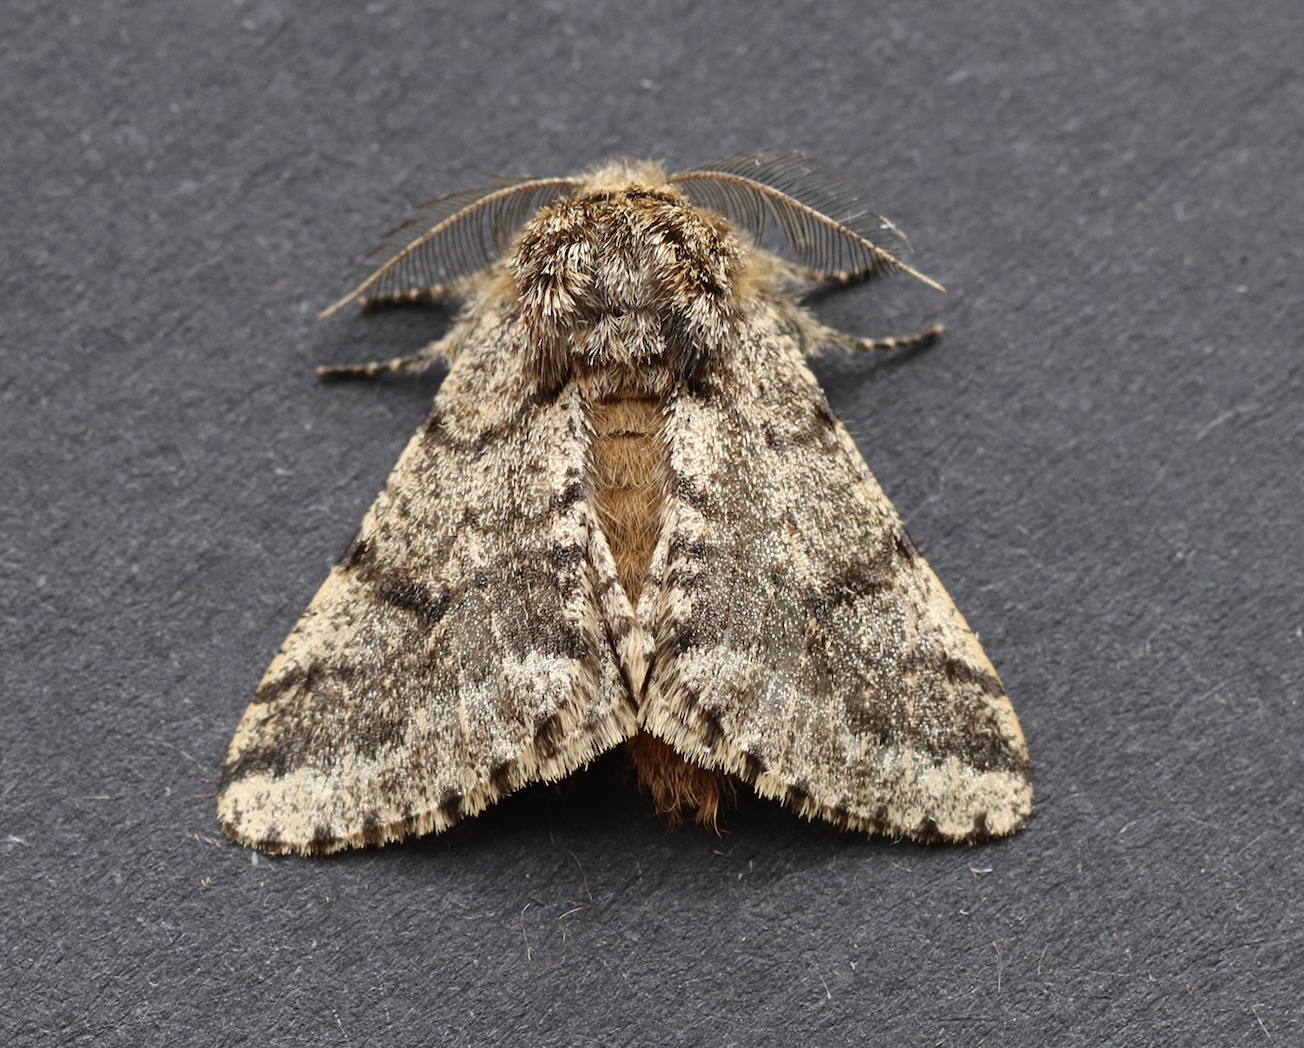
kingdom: Animalia
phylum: Arthropoda
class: Insecta
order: Lepidoptera
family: Geometridae
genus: Lycia
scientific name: Lycia hirtaria
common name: Brindled beauty
